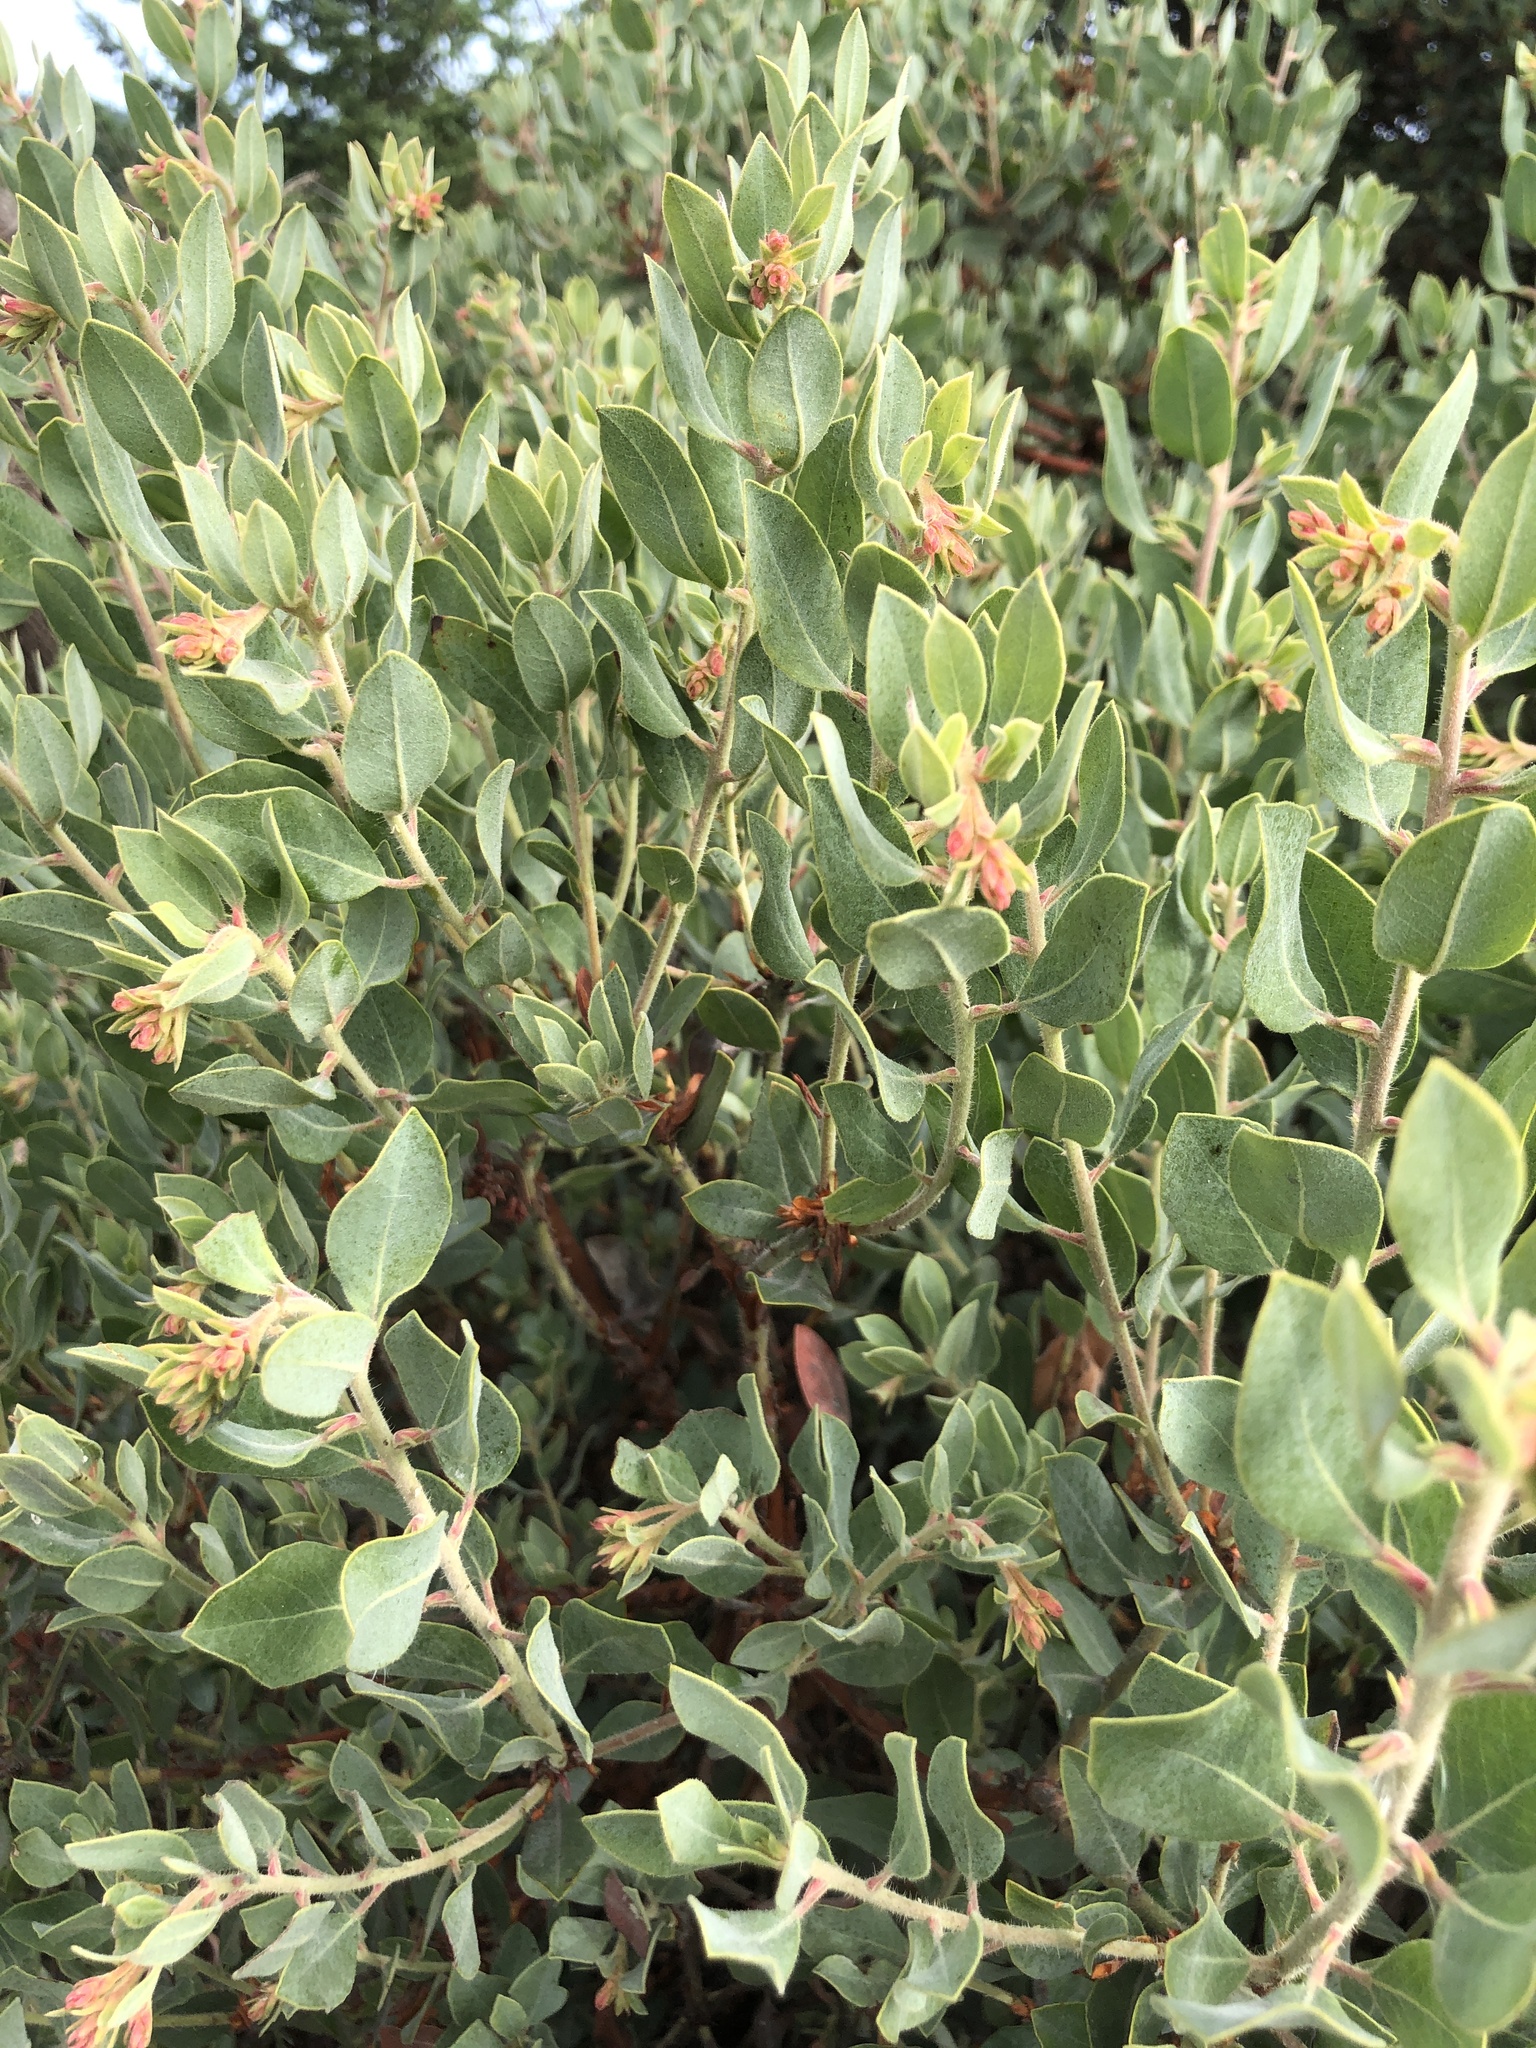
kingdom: Plantae
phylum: Tracheophyta
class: Magnoliopsida
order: Ericales
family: Ericaceae
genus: Arctostaphylos
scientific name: Arctostaphylos columbiana
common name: Bristly bearberry
